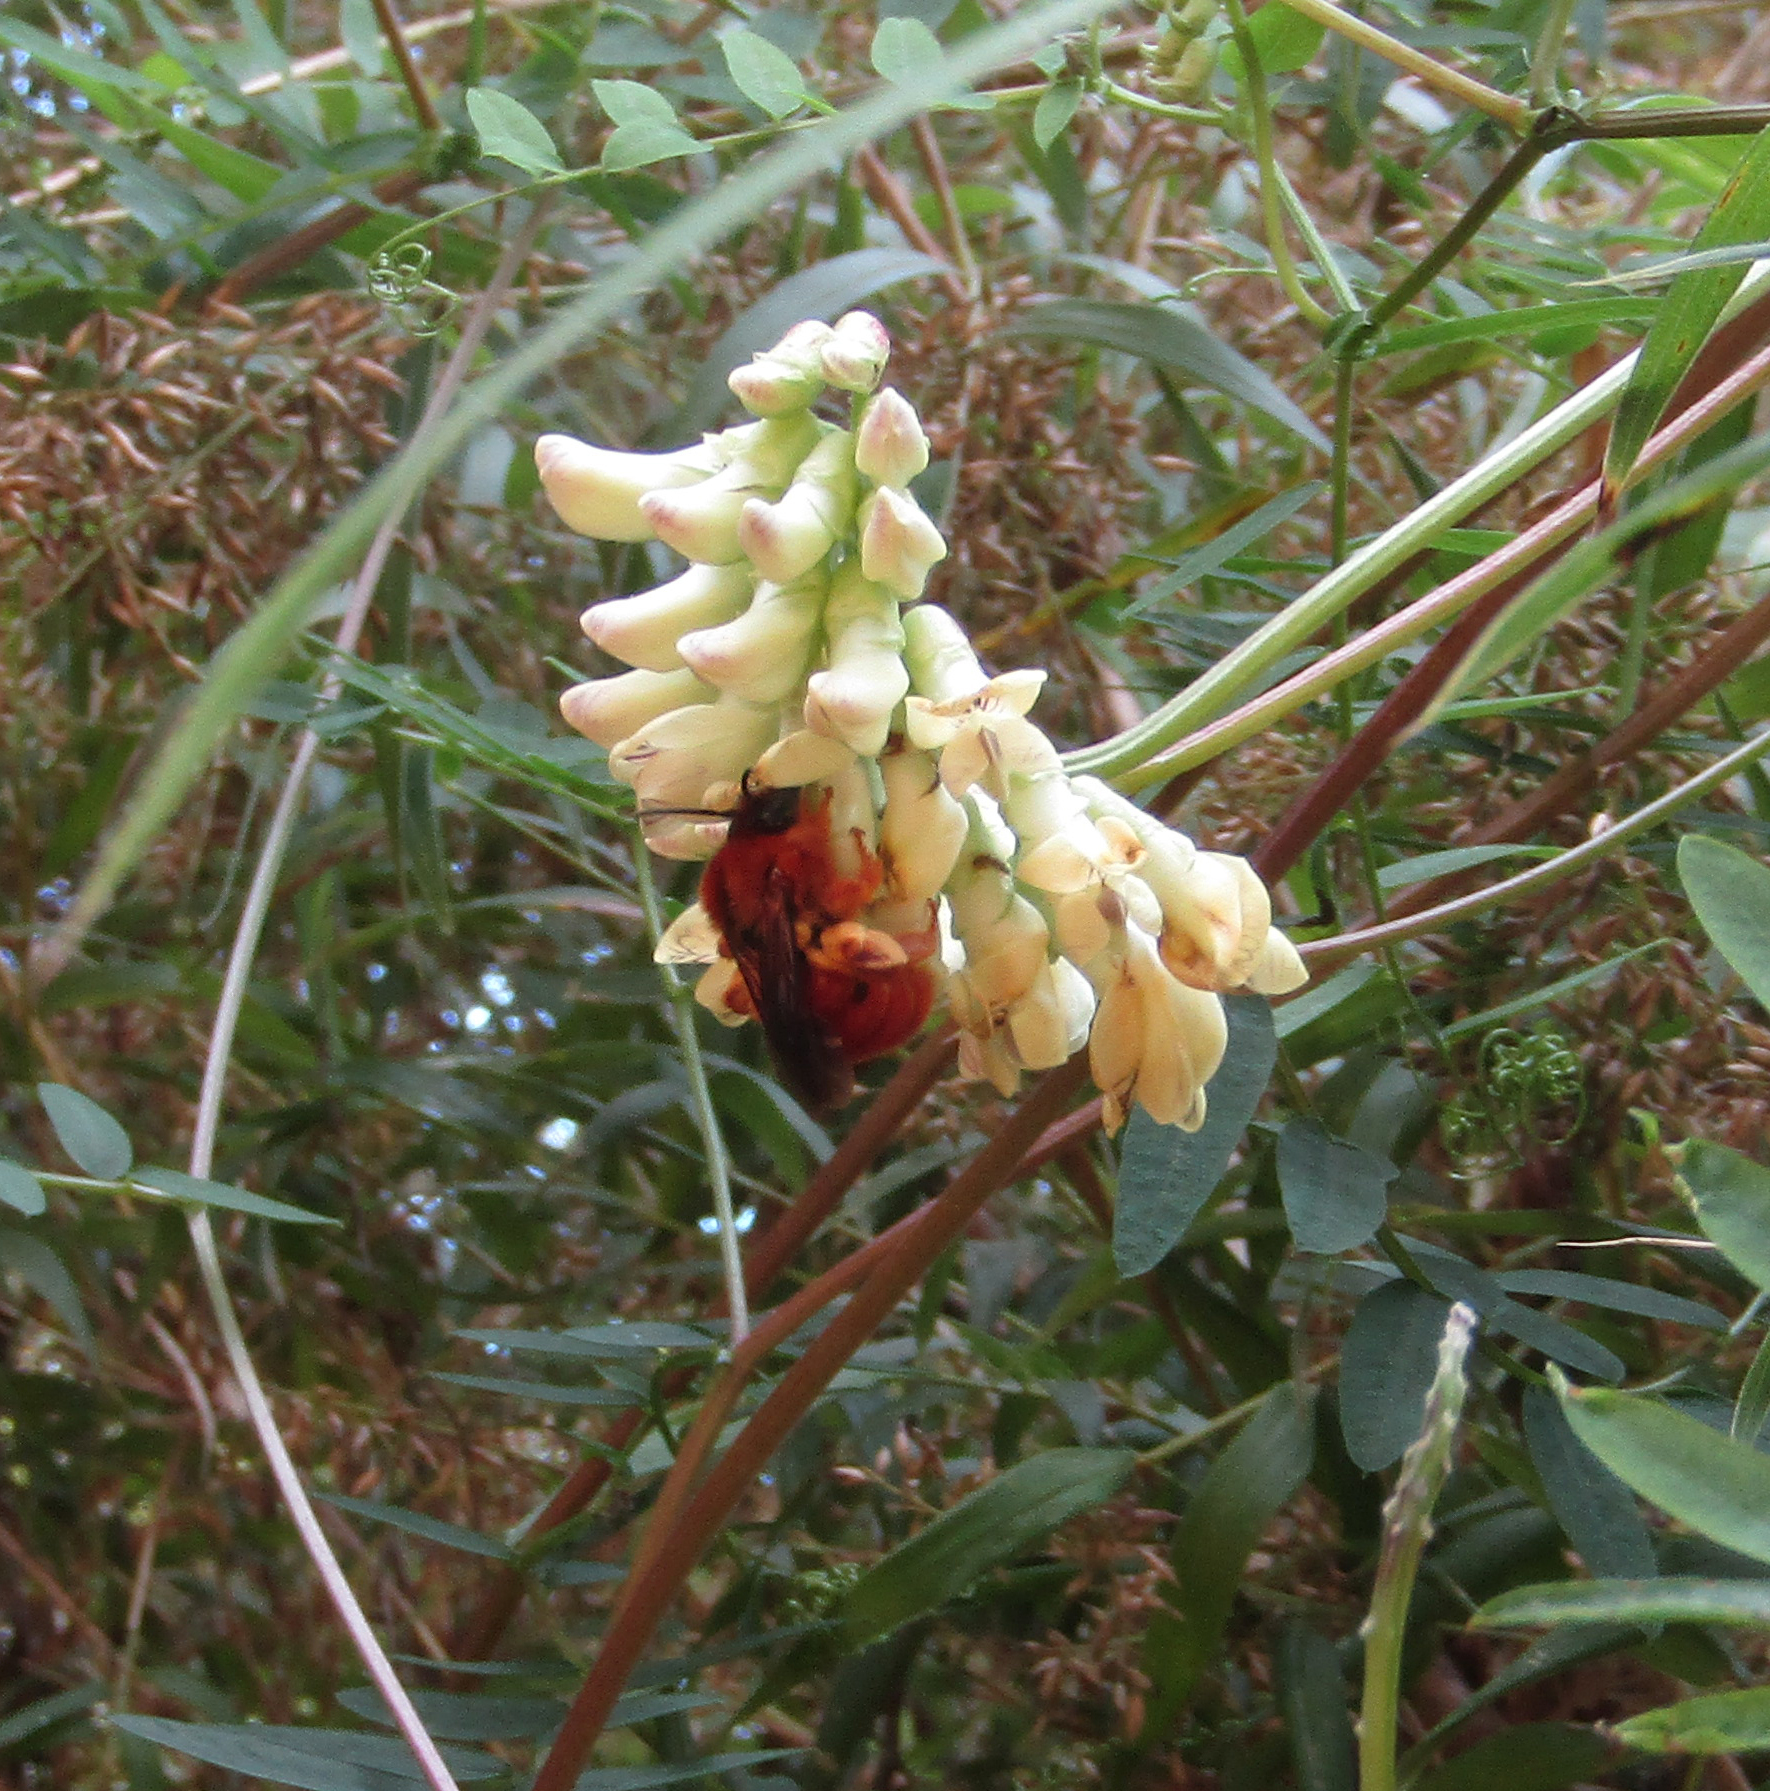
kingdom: Animalia
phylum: Arthropoda
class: Insecta
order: Hymenoptera
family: Colletidae
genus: Diphaglossa
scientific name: Diphaglossa gayi
